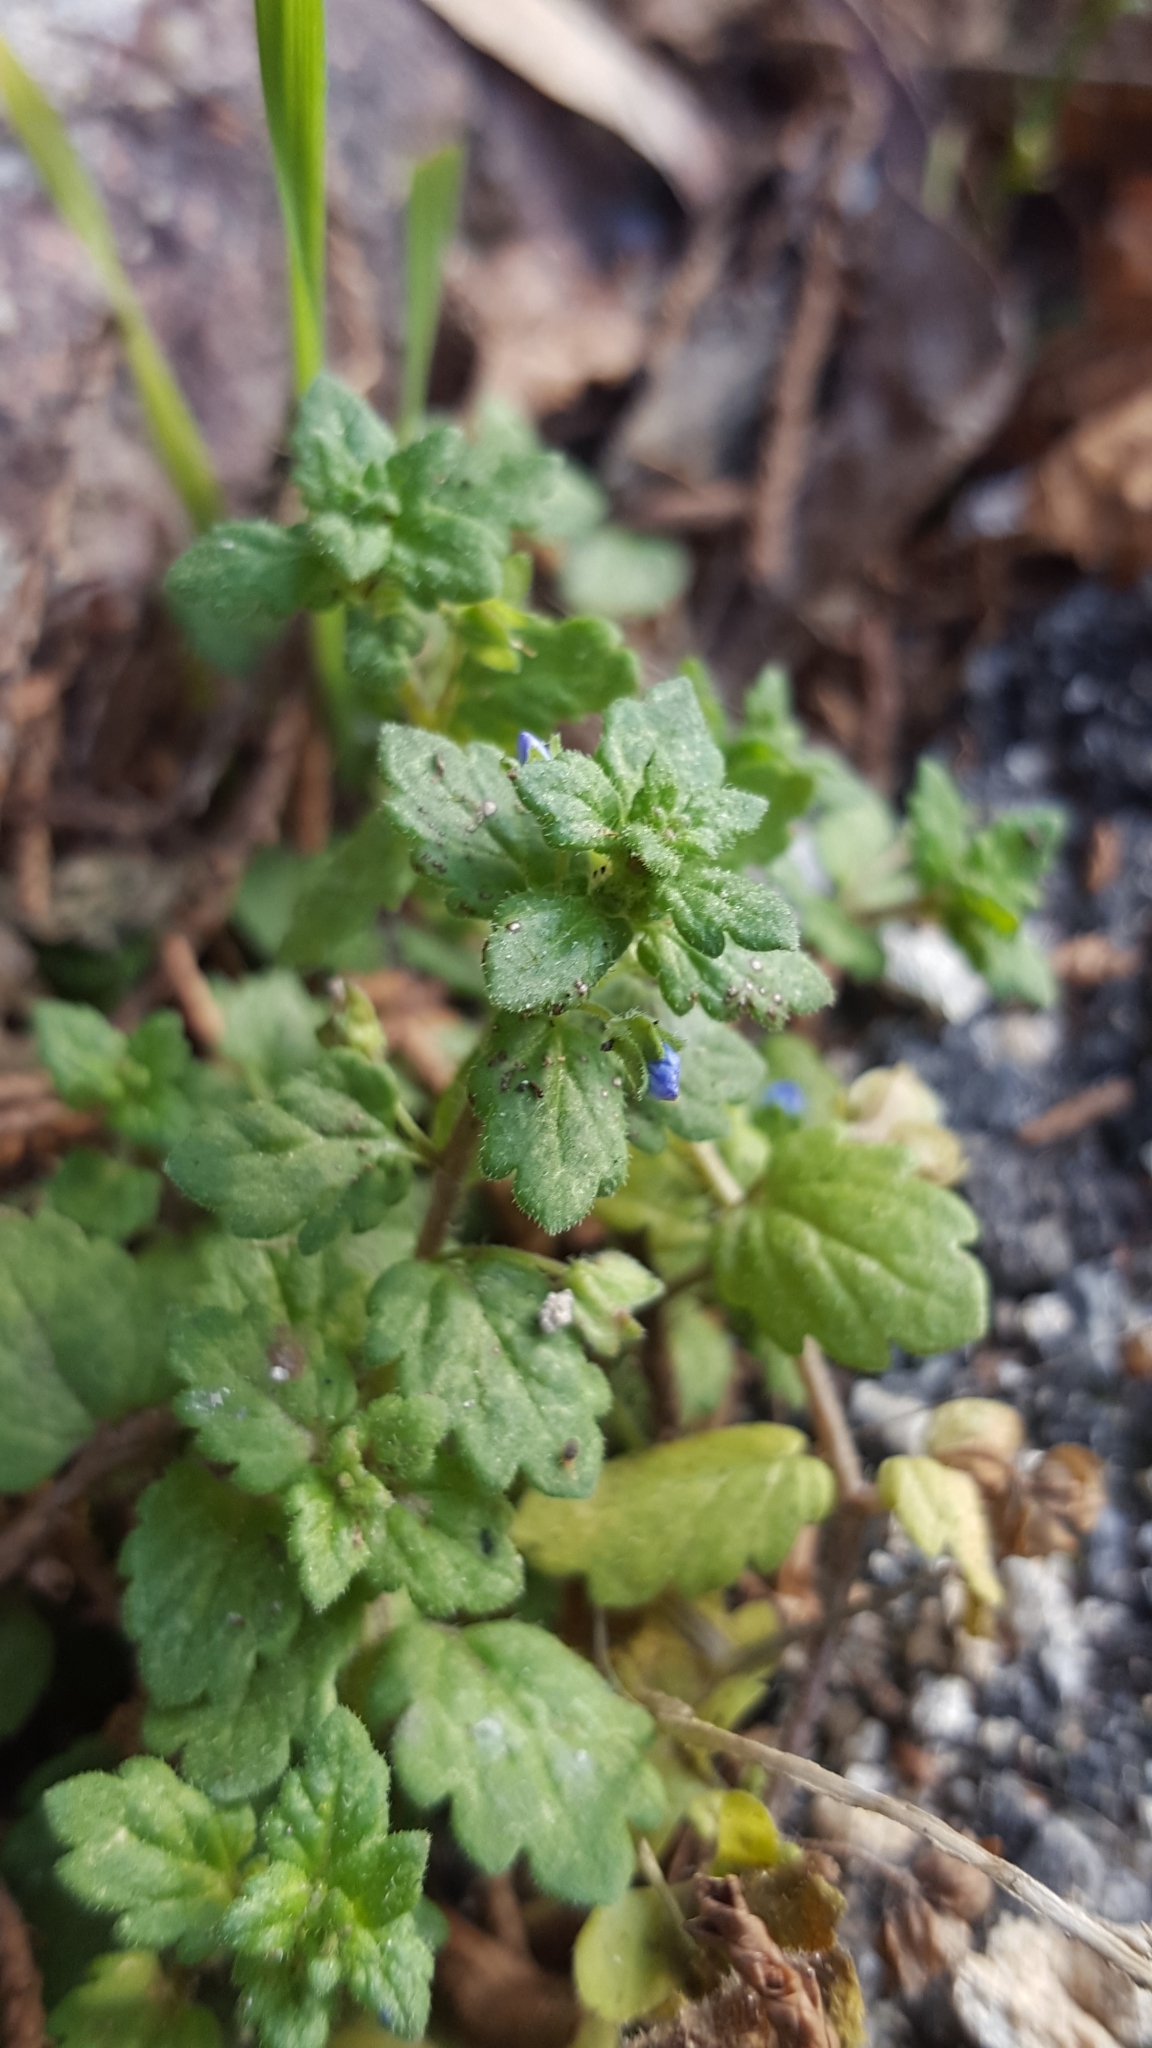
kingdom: Plantae
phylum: Tracheophyta
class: Magnoliopsida
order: Lamiales
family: Plantaginaceae
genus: Veronica
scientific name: Veronica polita
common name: Grey field-speedwell
